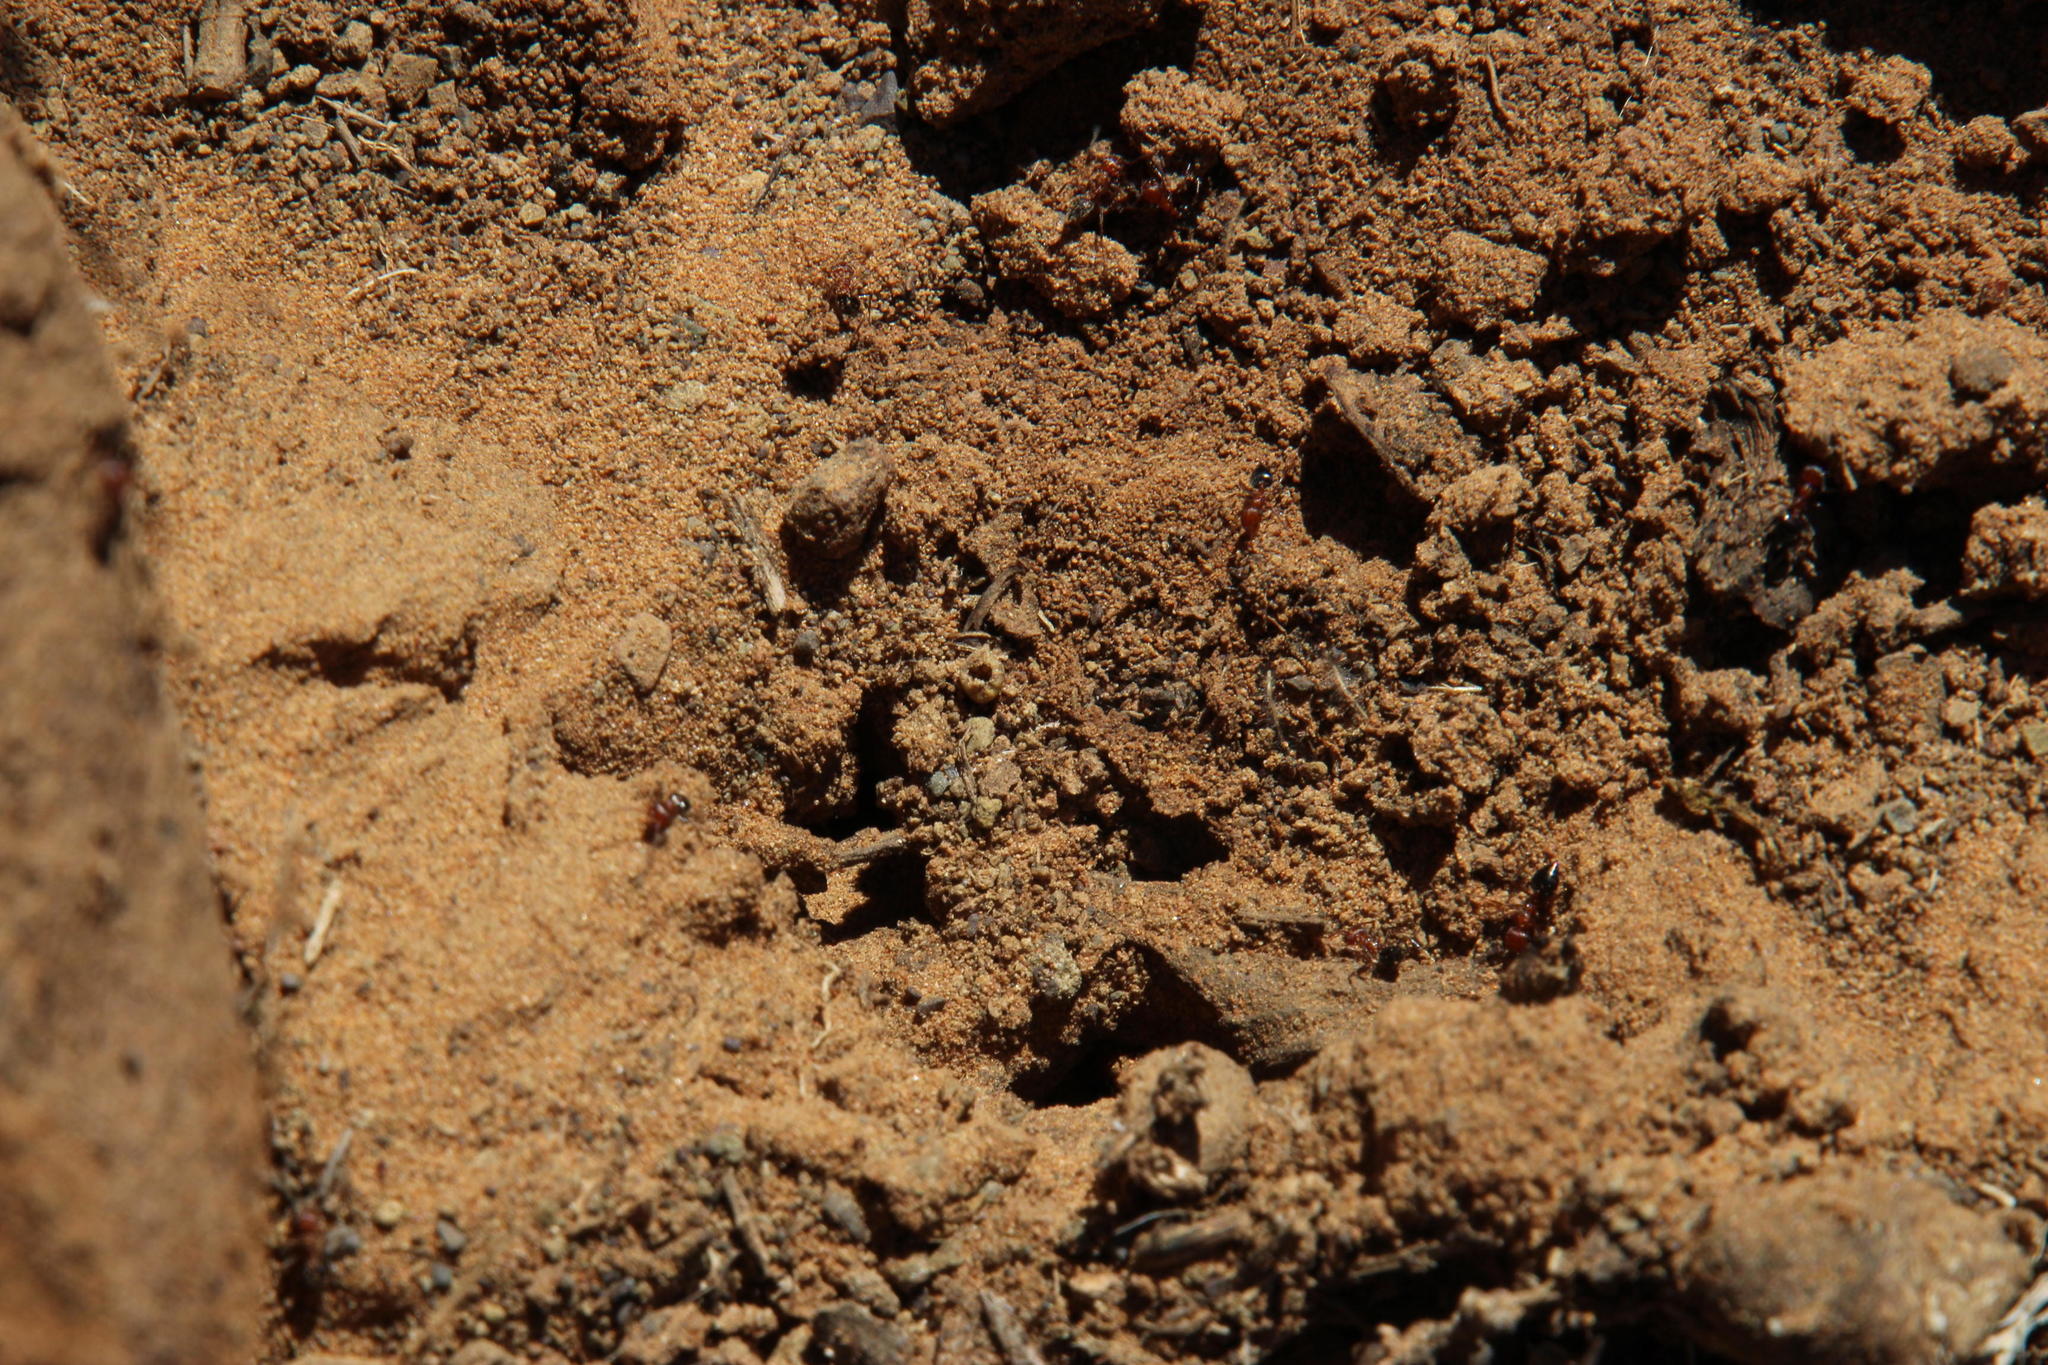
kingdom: Animalia
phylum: Arthropoda
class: Insecta
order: Hymenoptera
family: Formicidae
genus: Crematogaster
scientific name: Crematogaster melanogaster
